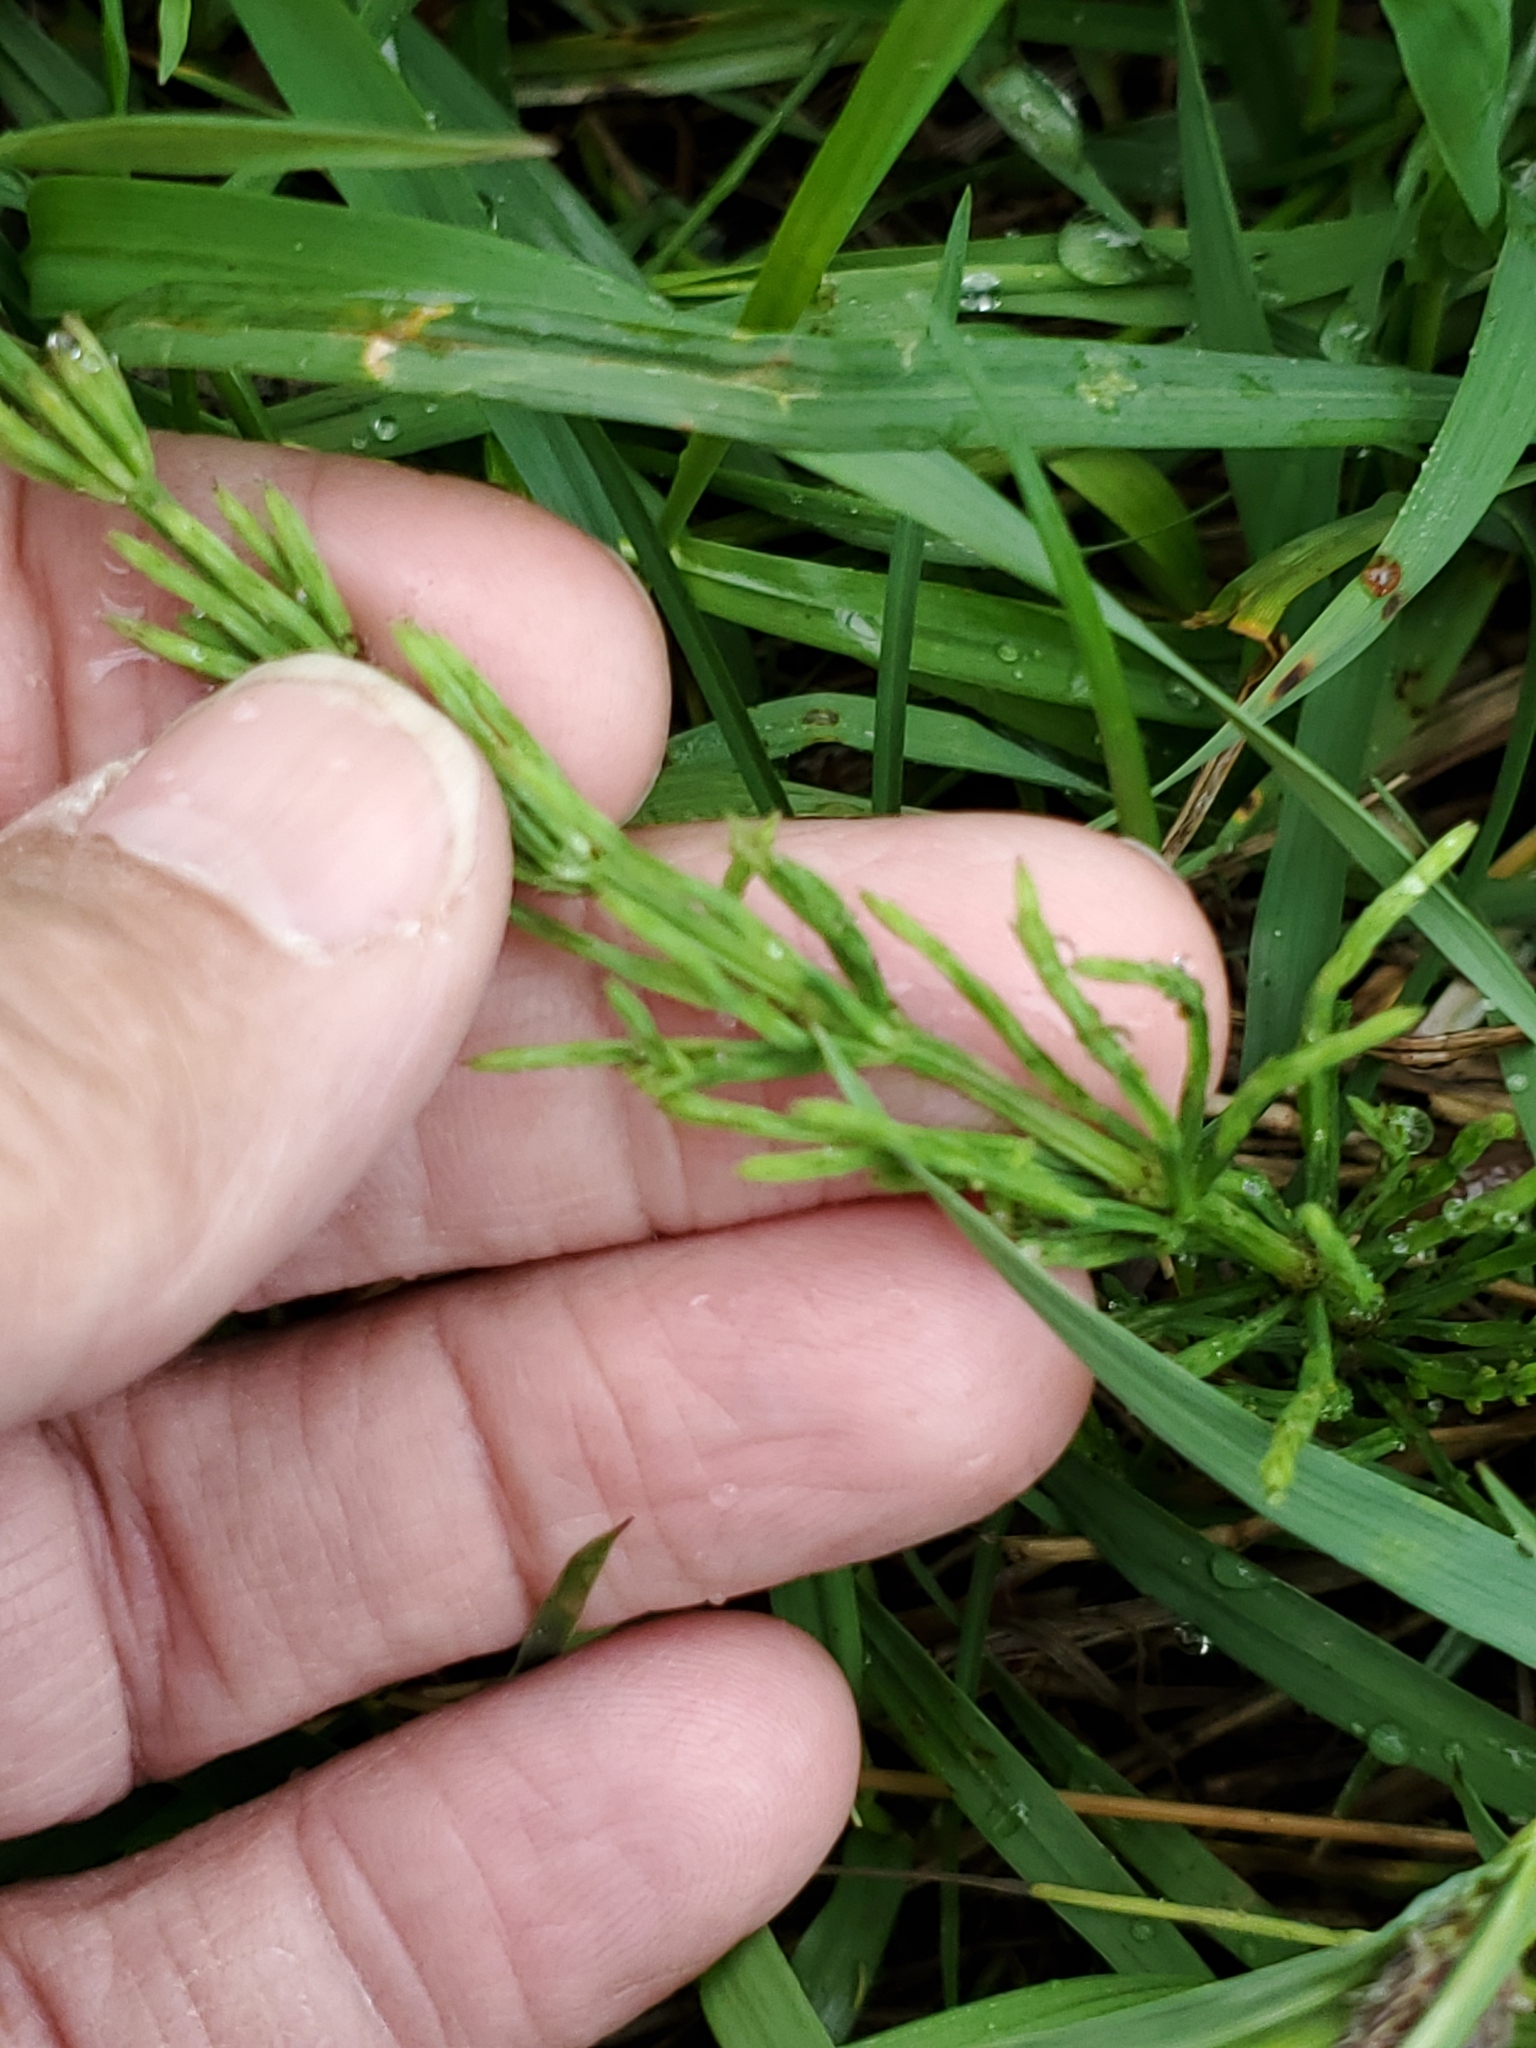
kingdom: Plantae
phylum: Tracheophyta
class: Polypodiopsida
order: Equisetales
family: Equisetaceae
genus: Equisetum
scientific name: Equisetum arvense
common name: Field horsetail
